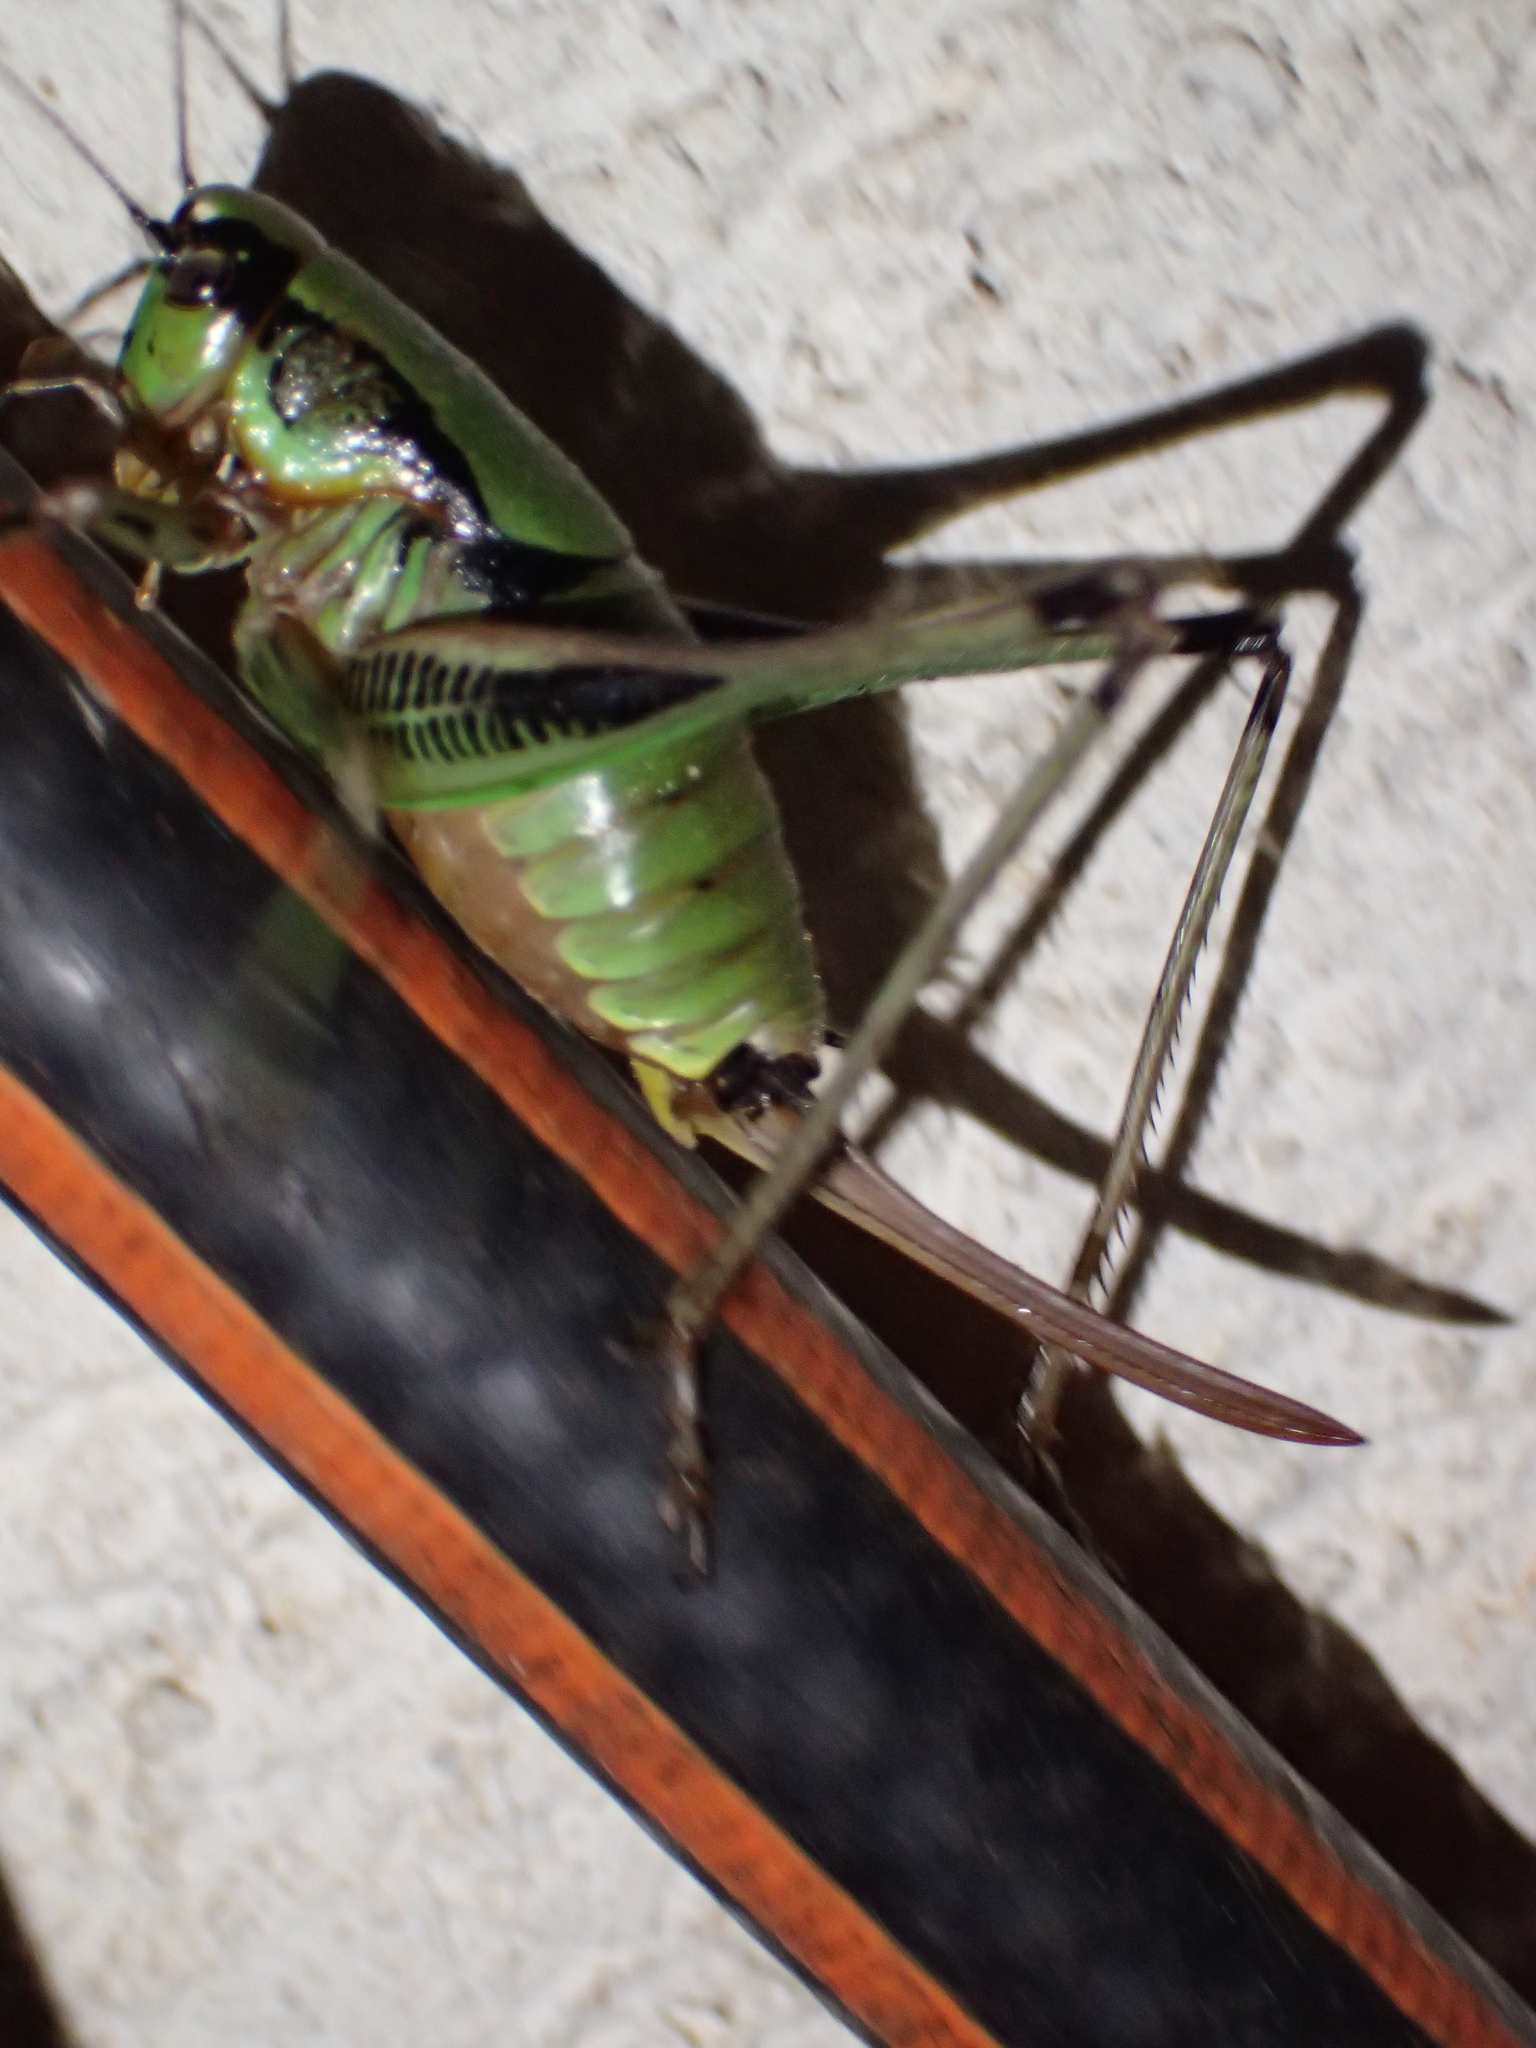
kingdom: Animalia
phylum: Arthropoda
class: Insecta
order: Orthoptera
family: Tettigoniidae
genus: Eupholidoptera
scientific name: Eupholidoptera schmidti
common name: Schmidt's marbled bush-cricket
